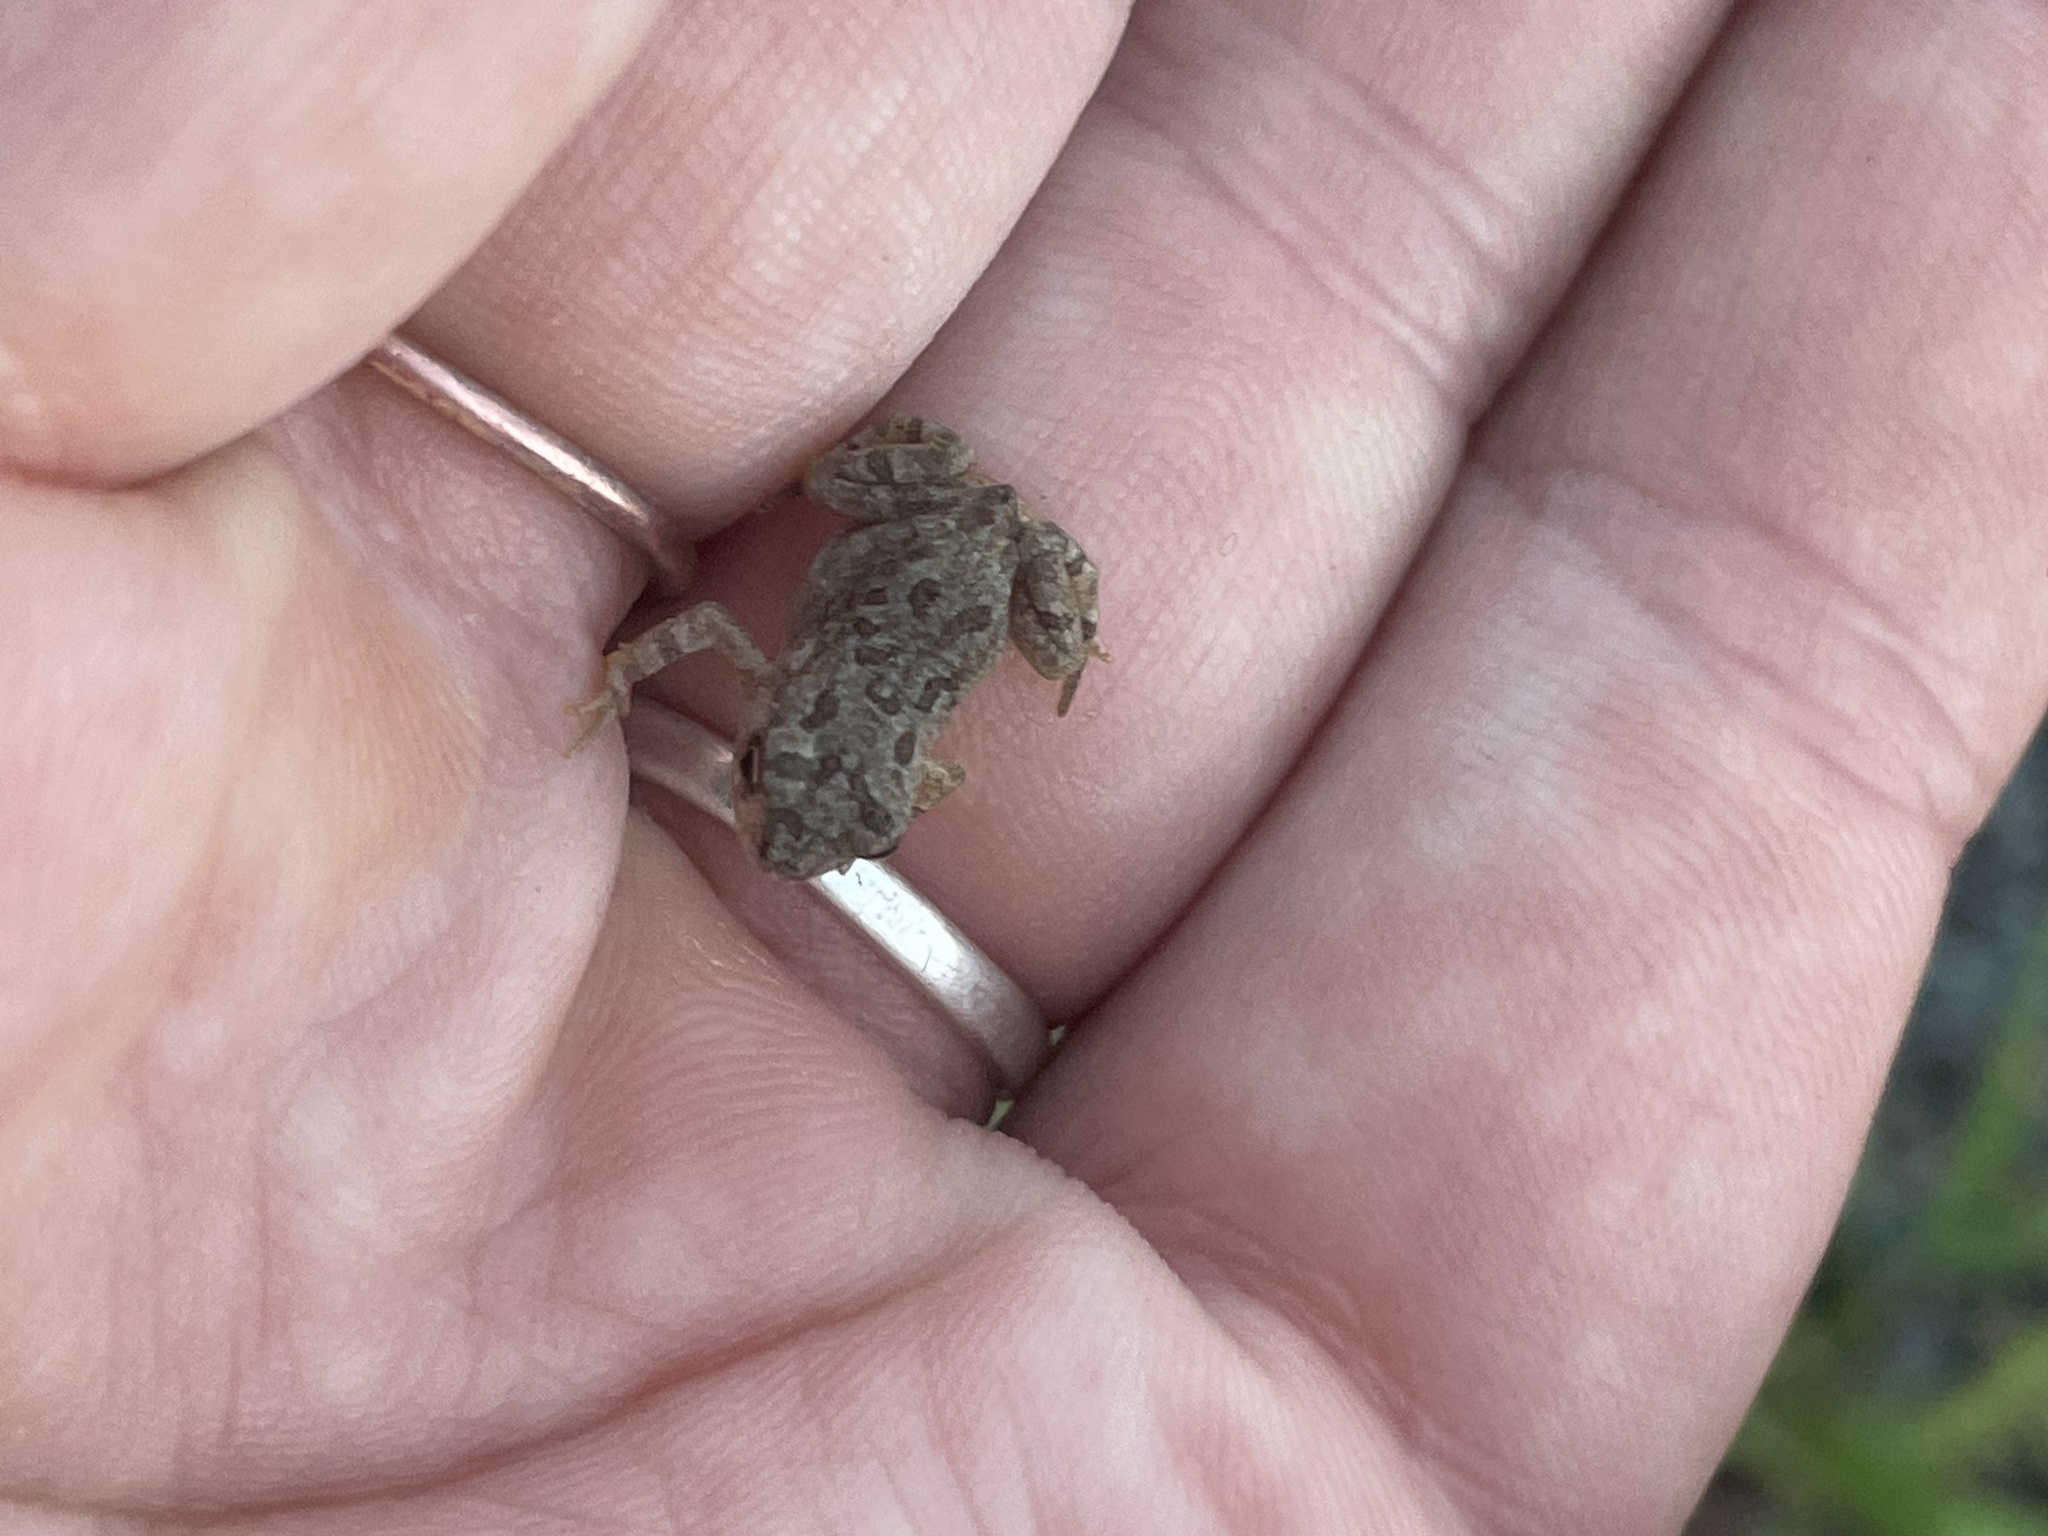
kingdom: Animalia
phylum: Chordata
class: Amphibia
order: Anura
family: Bufonidae
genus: Anaxyrus
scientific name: Anaxyrus fowleri
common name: Fowler's toad
